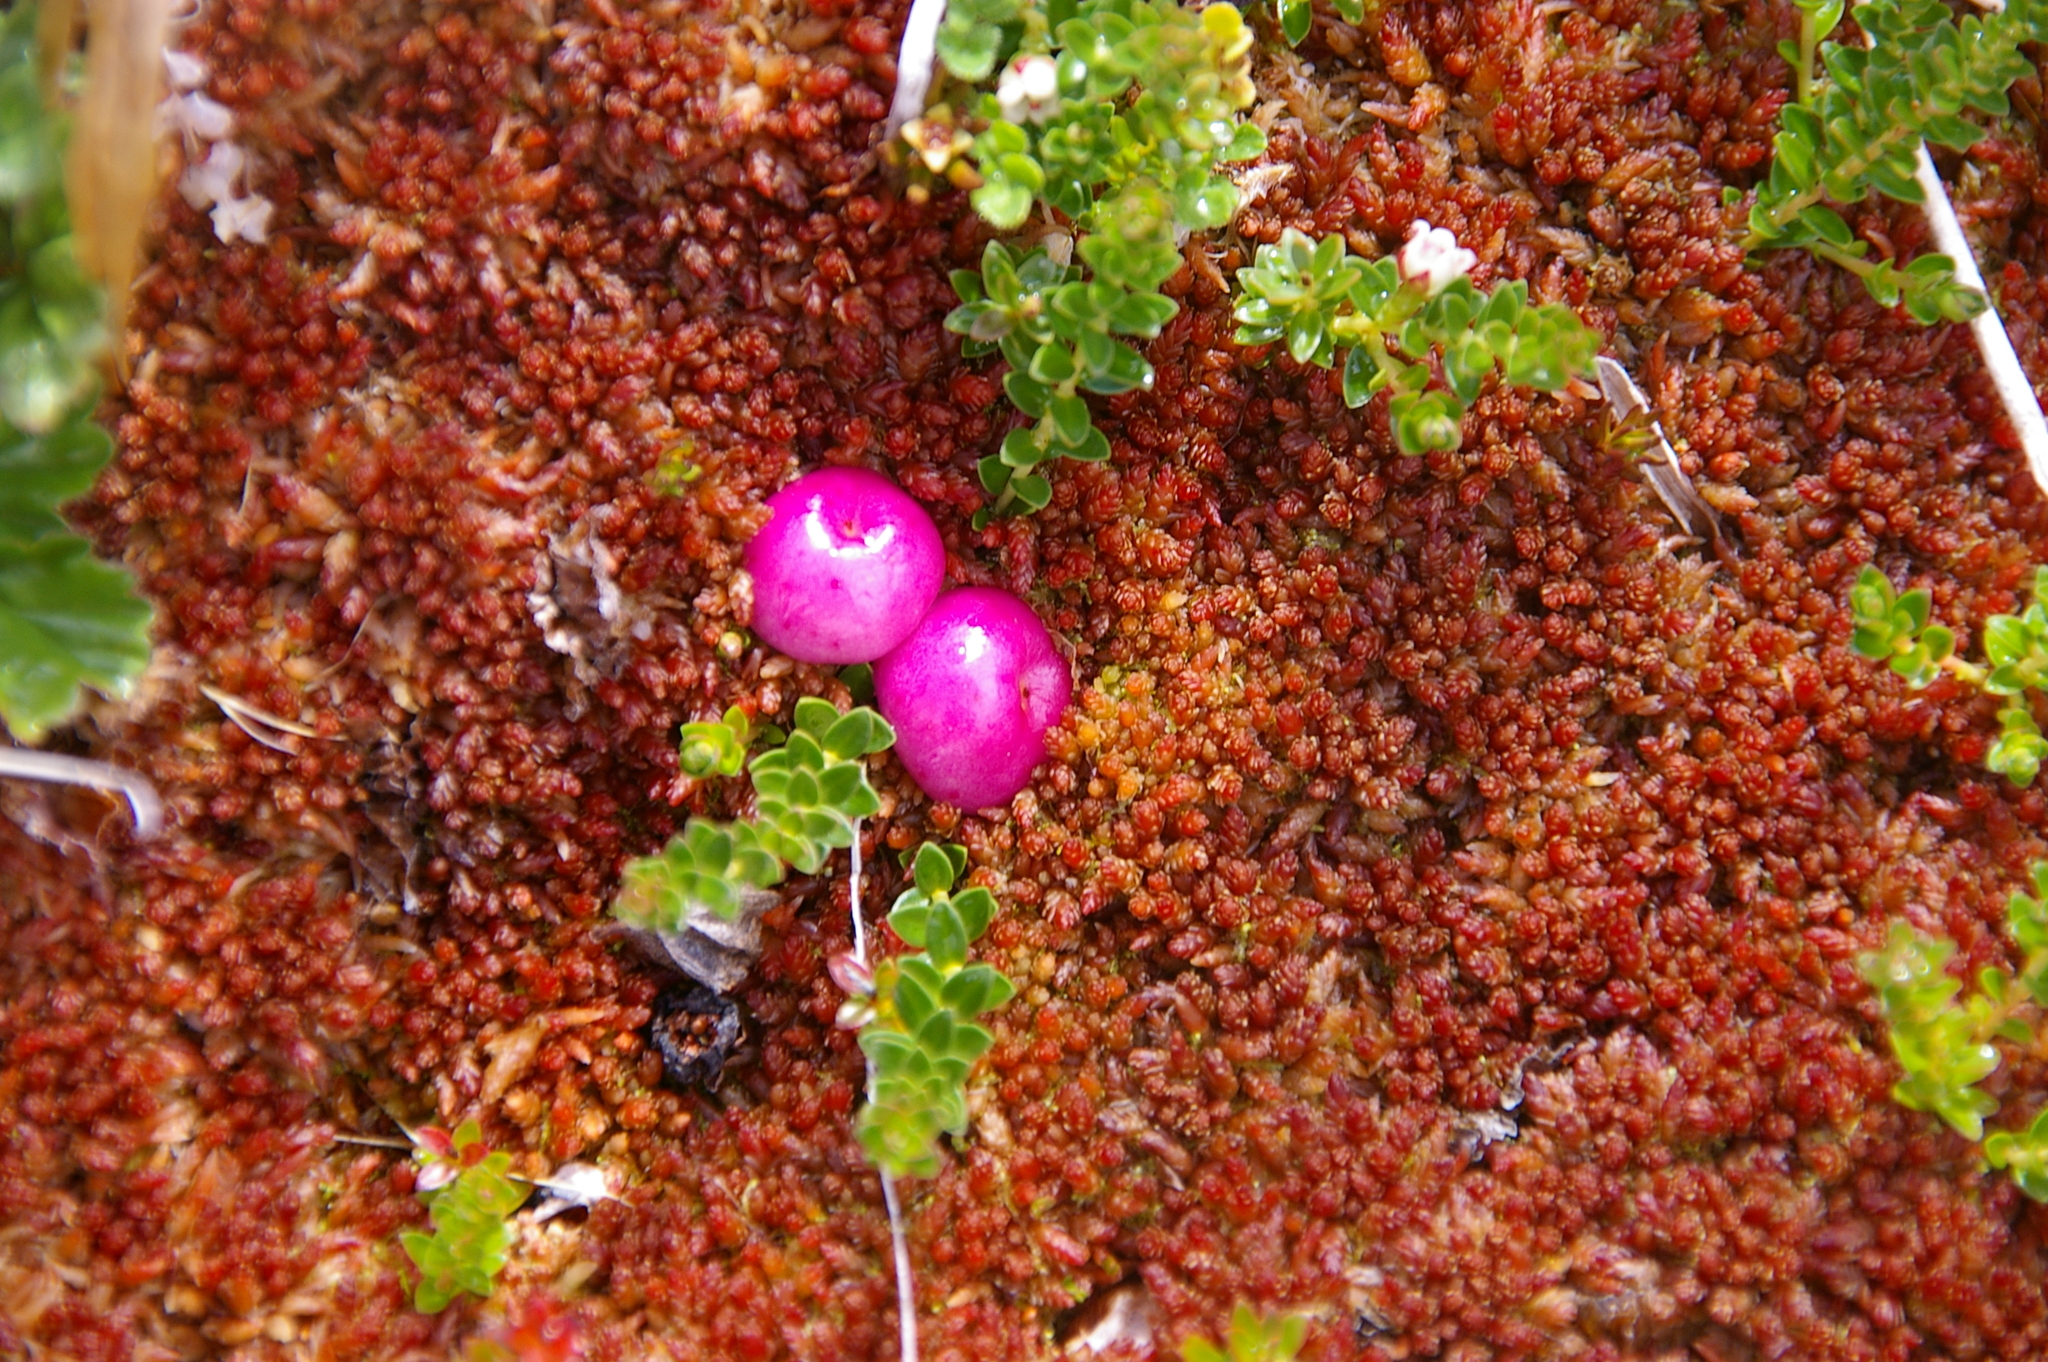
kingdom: Plantae
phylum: Tracheophyta
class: Magnoliopsida
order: Ericales
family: Ericaceae
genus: Gaultheria
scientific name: Gaultheria pumila
